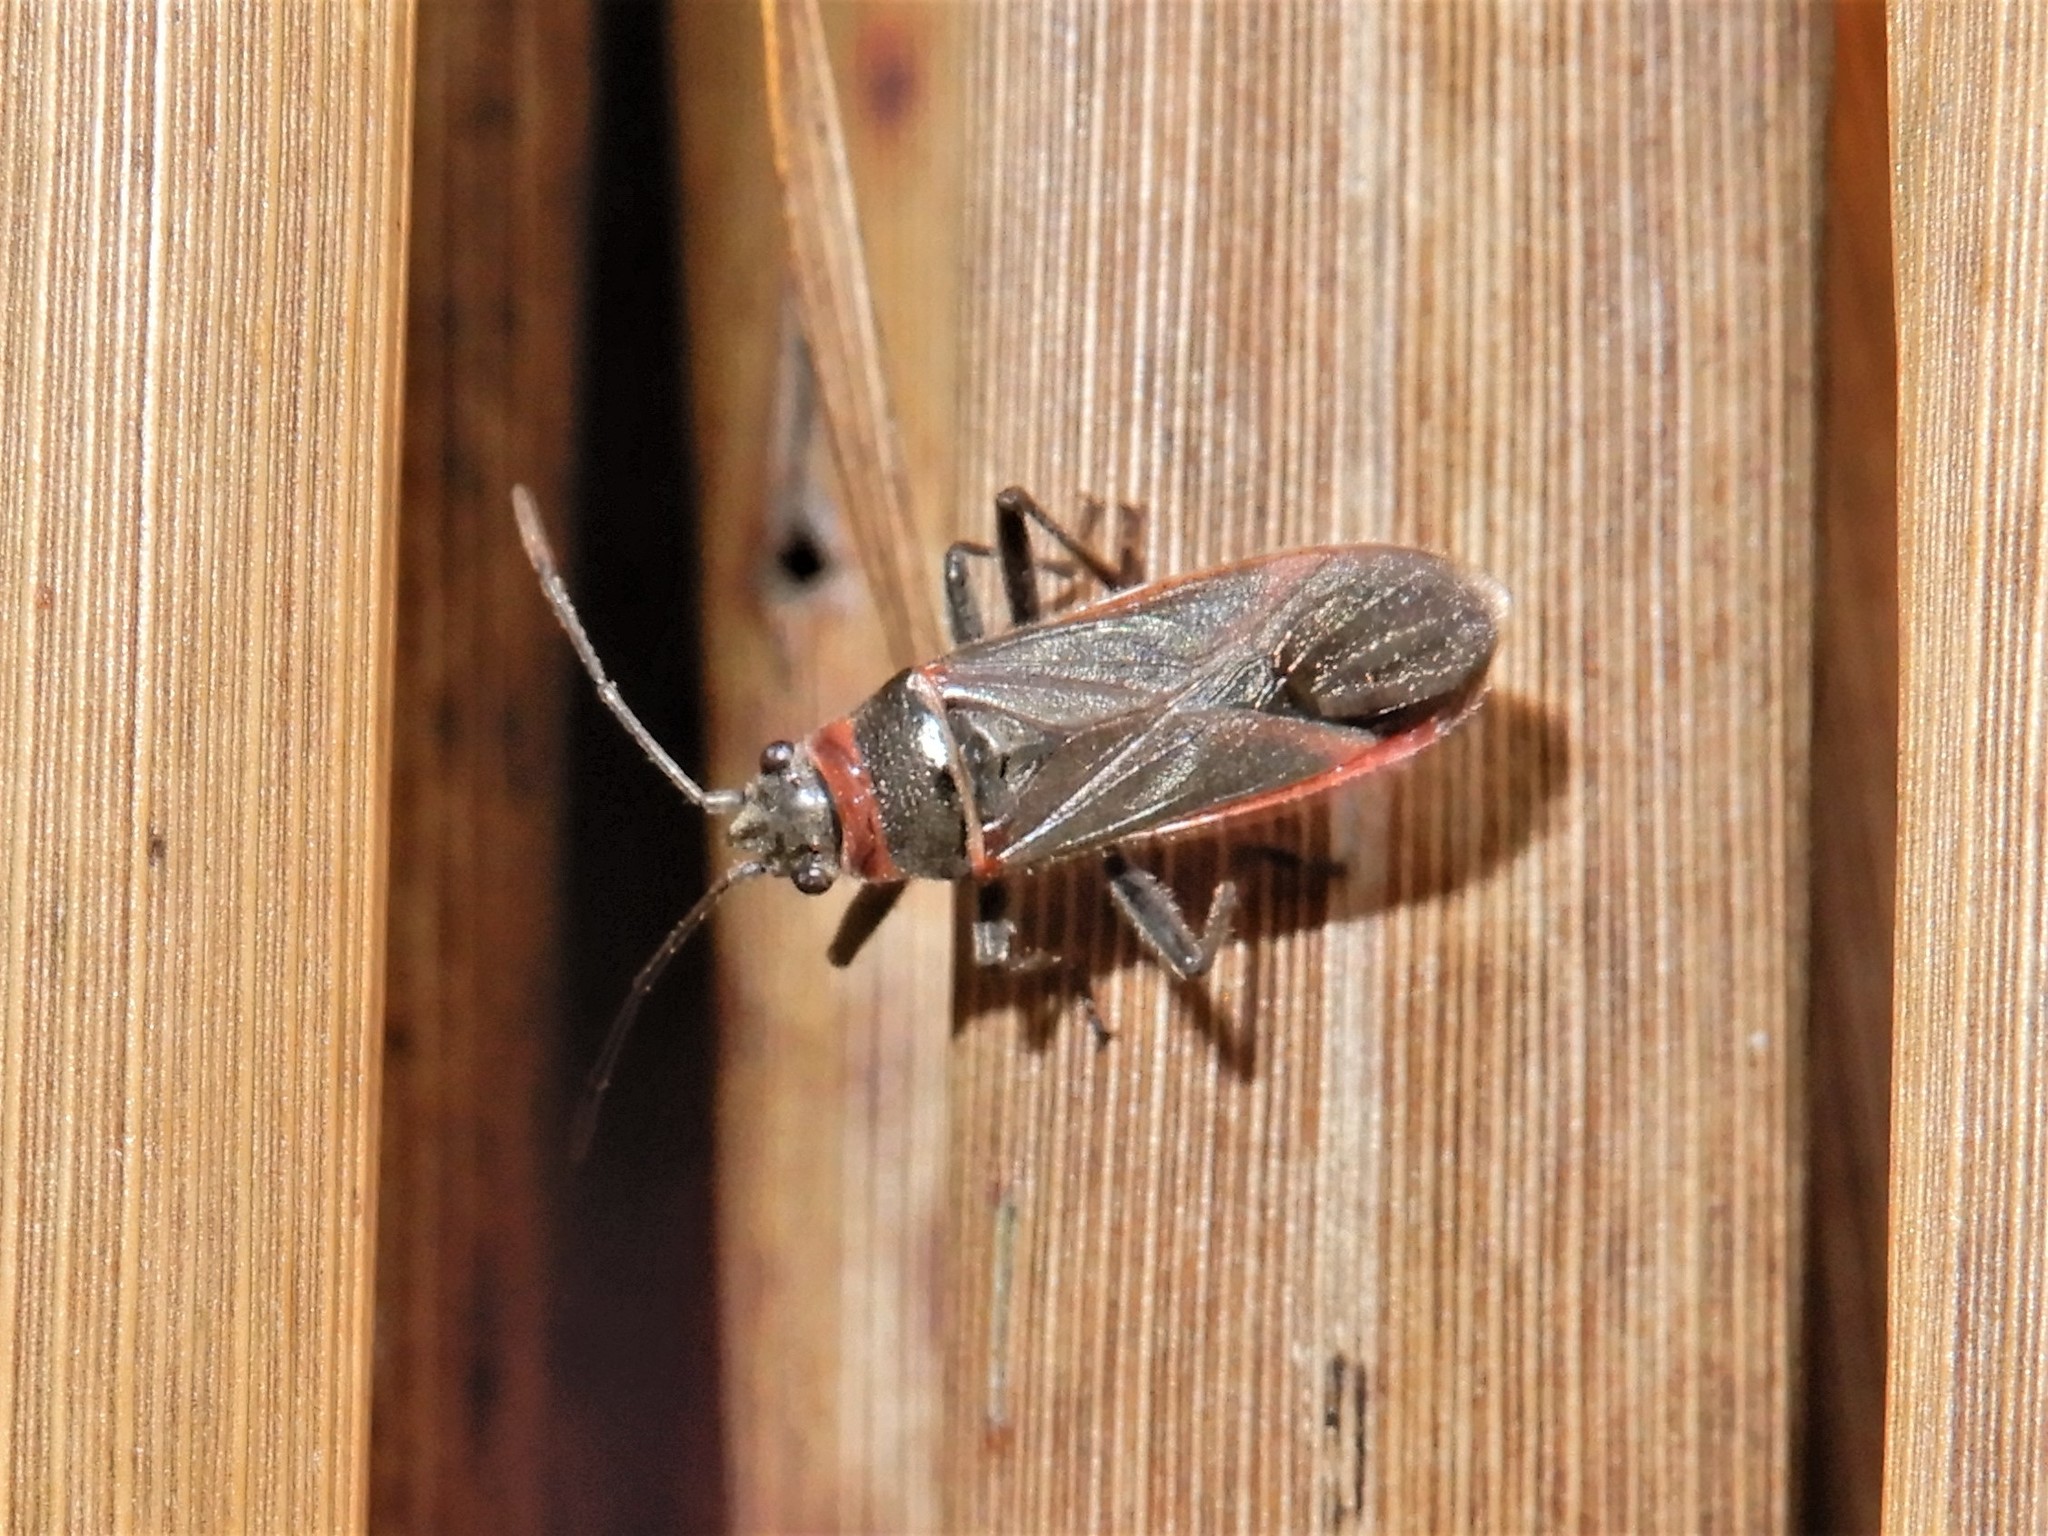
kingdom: Animalia
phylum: Arthropoda
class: Insecta
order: Hemiptera
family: Lygaeidae
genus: Arocatus
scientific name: Arocatus rusticus
